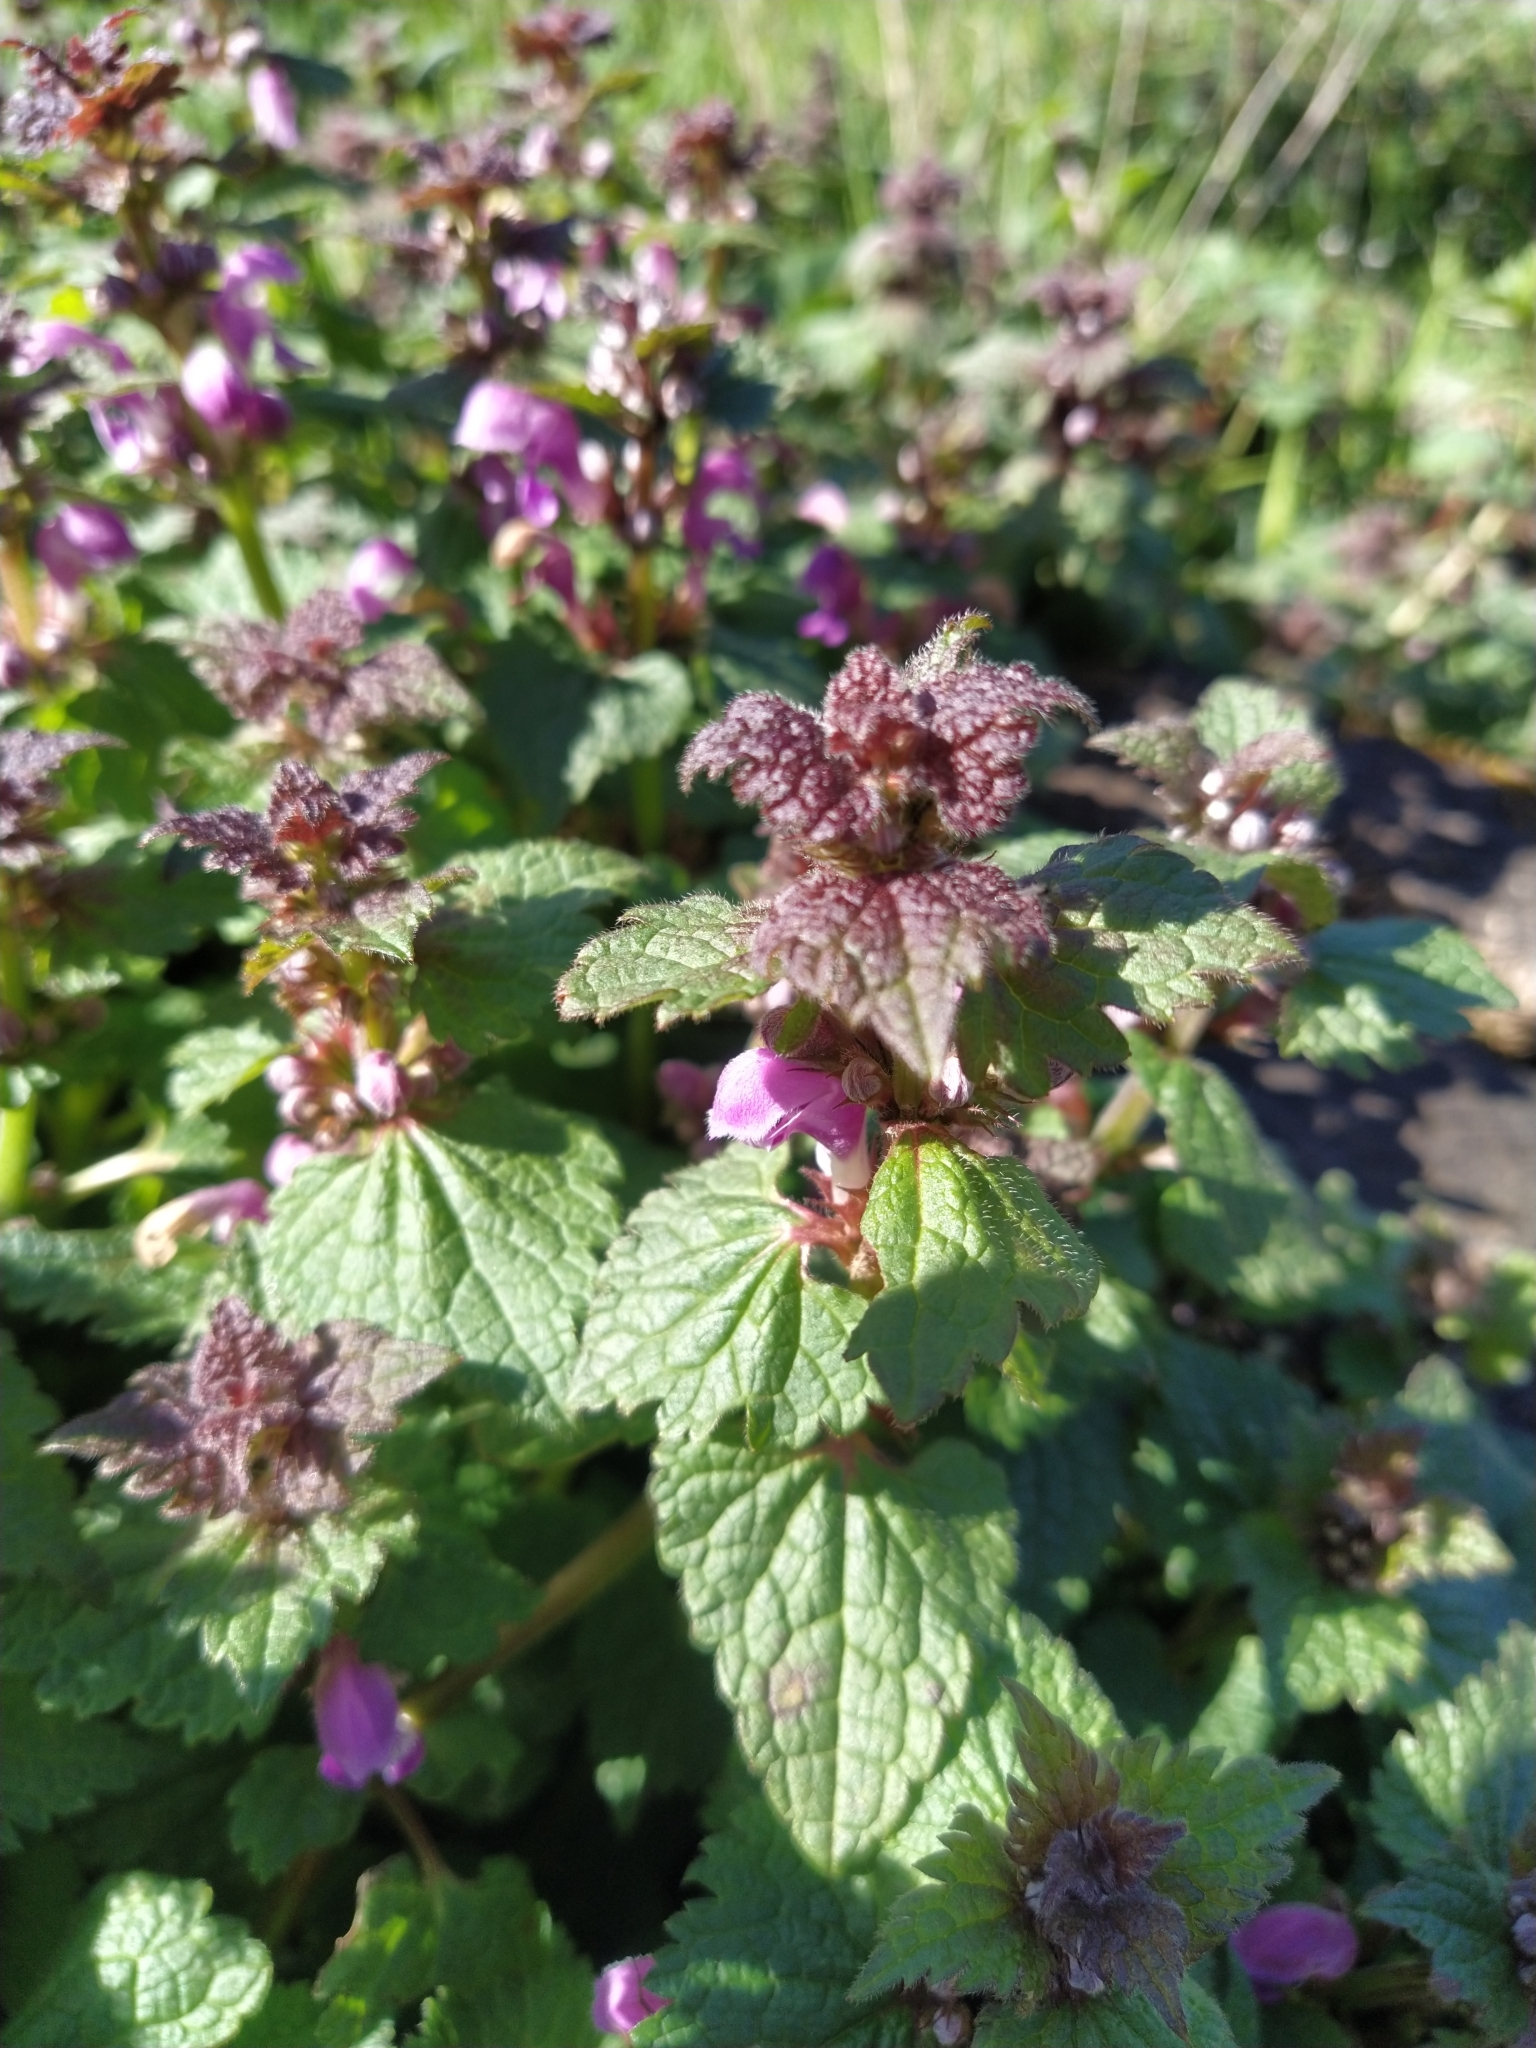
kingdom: Plantae
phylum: Tracheophyta
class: Magnoliopsida
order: Lamiales
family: Lamiaceae
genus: Lamium
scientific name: Lamium purpureum
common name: Red dead-nettle
